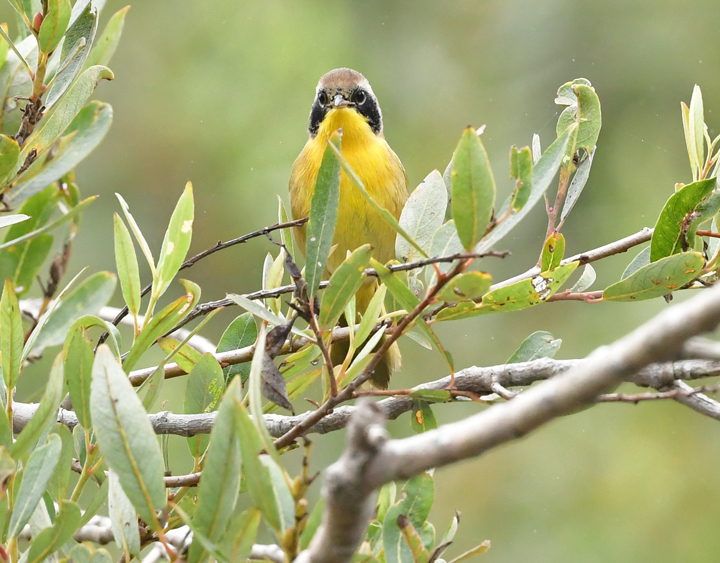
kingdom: Animalia
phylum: Chordata
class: Aves
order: Passeriformes
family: Parulidae
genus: Geothlypis
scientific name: Geothlypis trichas
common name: Common yellowthroat
